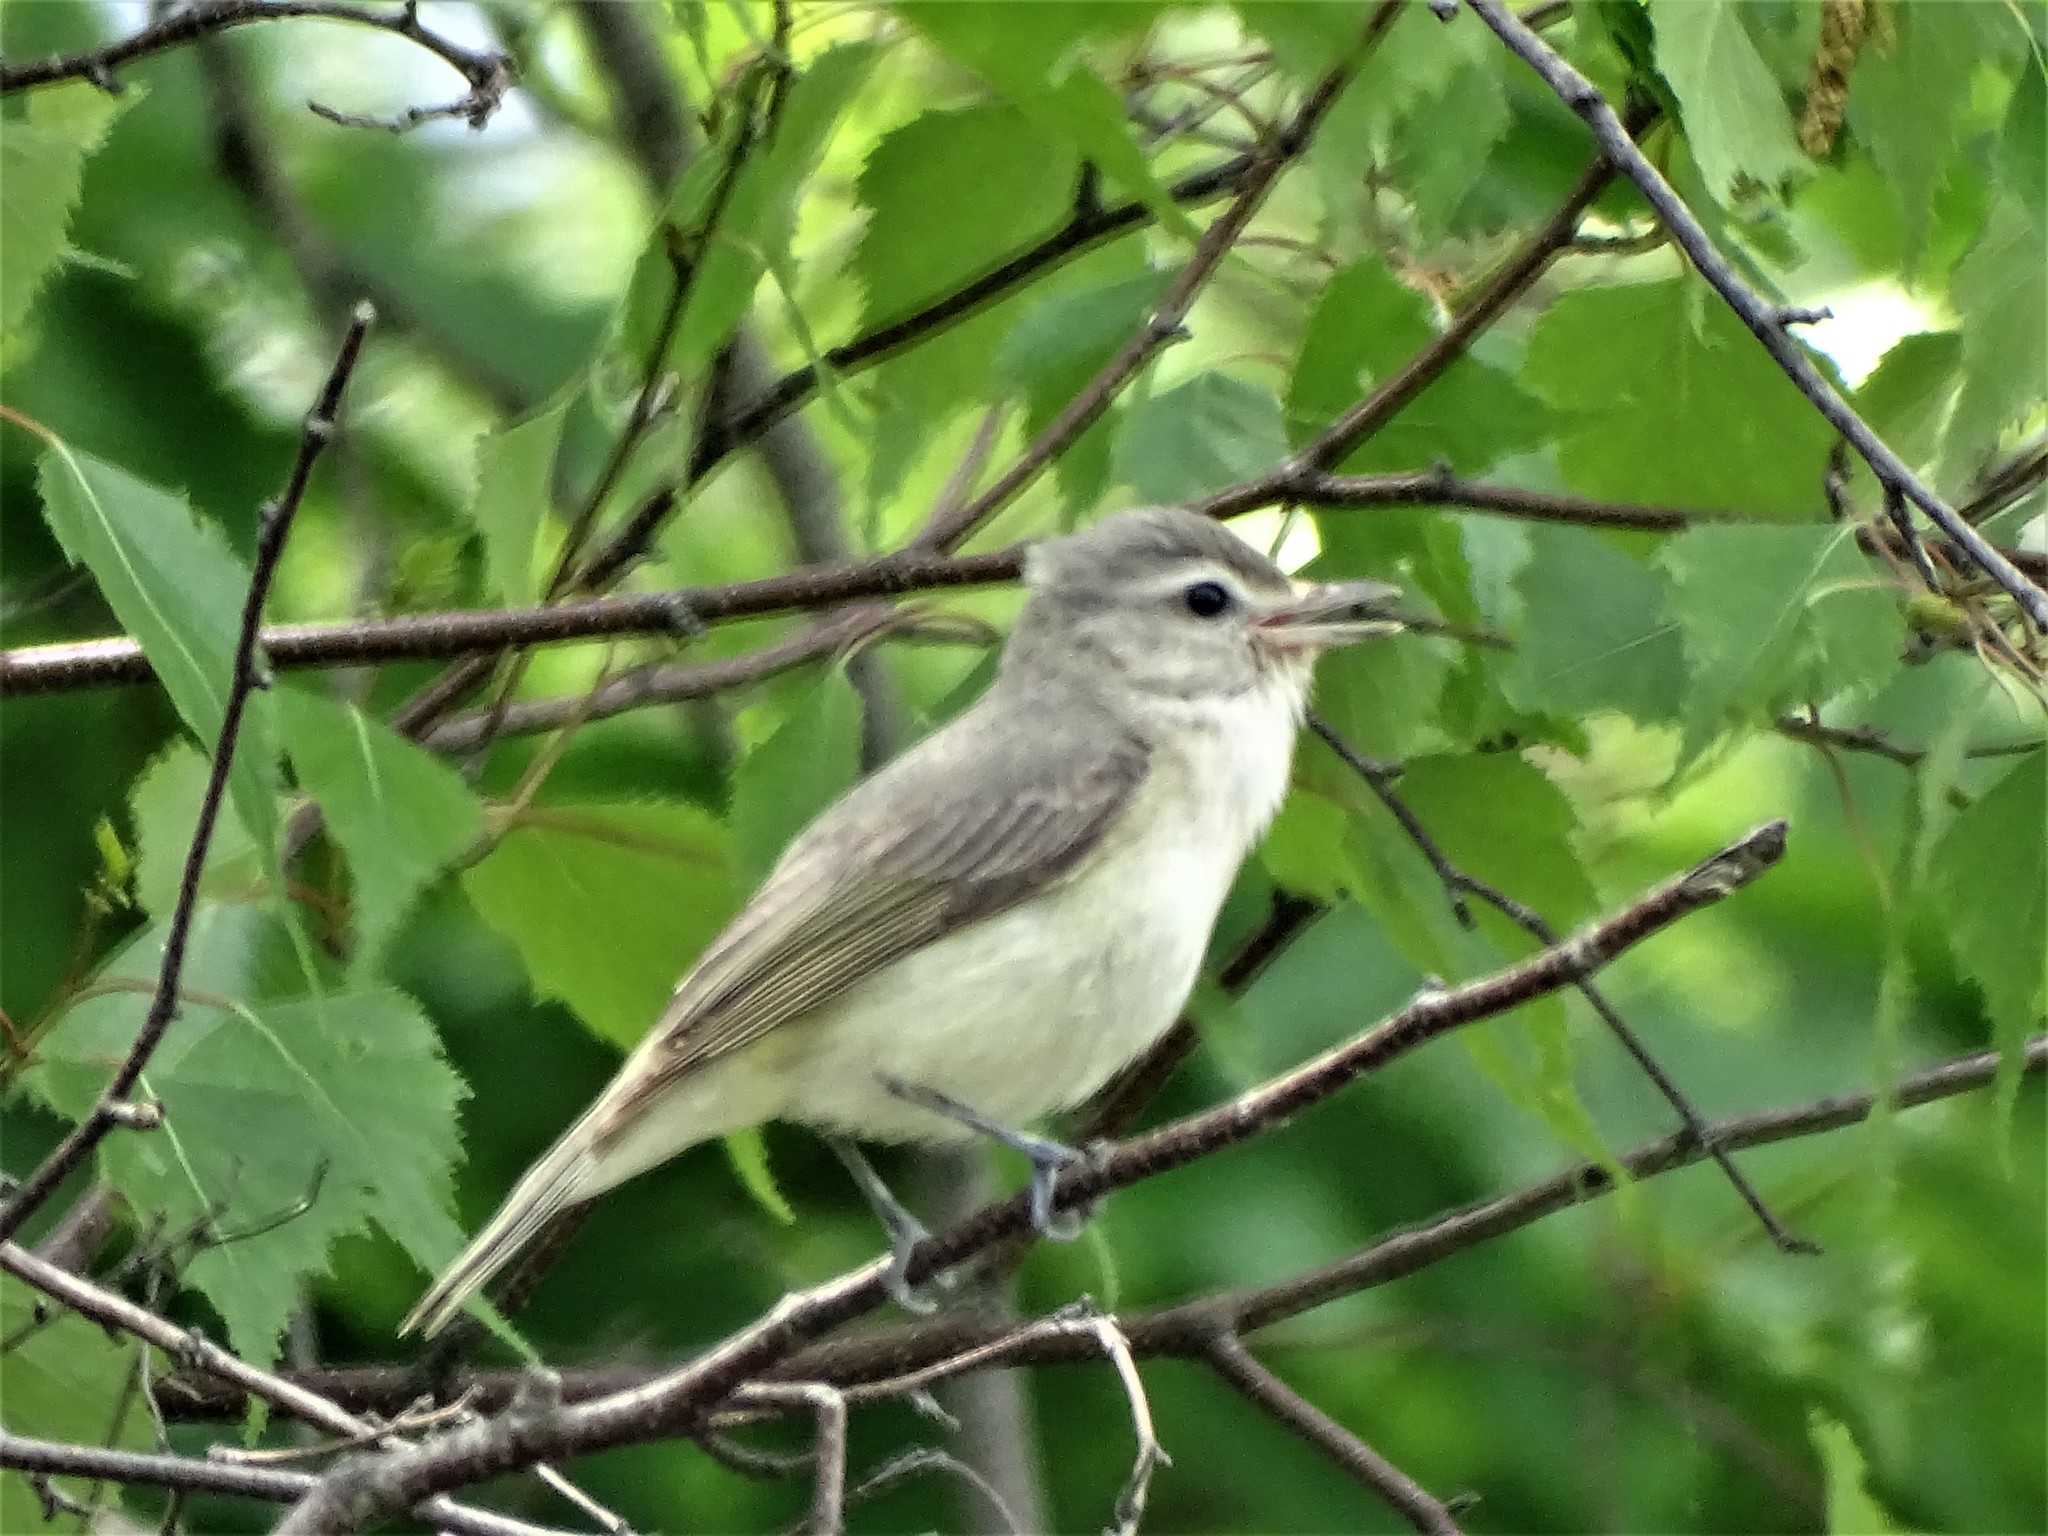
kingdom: Animalia
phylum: Chordata
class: Aves
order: Passeriformes
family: Vireonidae
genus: Vireo
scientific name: Vireo gilvus
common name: Warbling vireo
